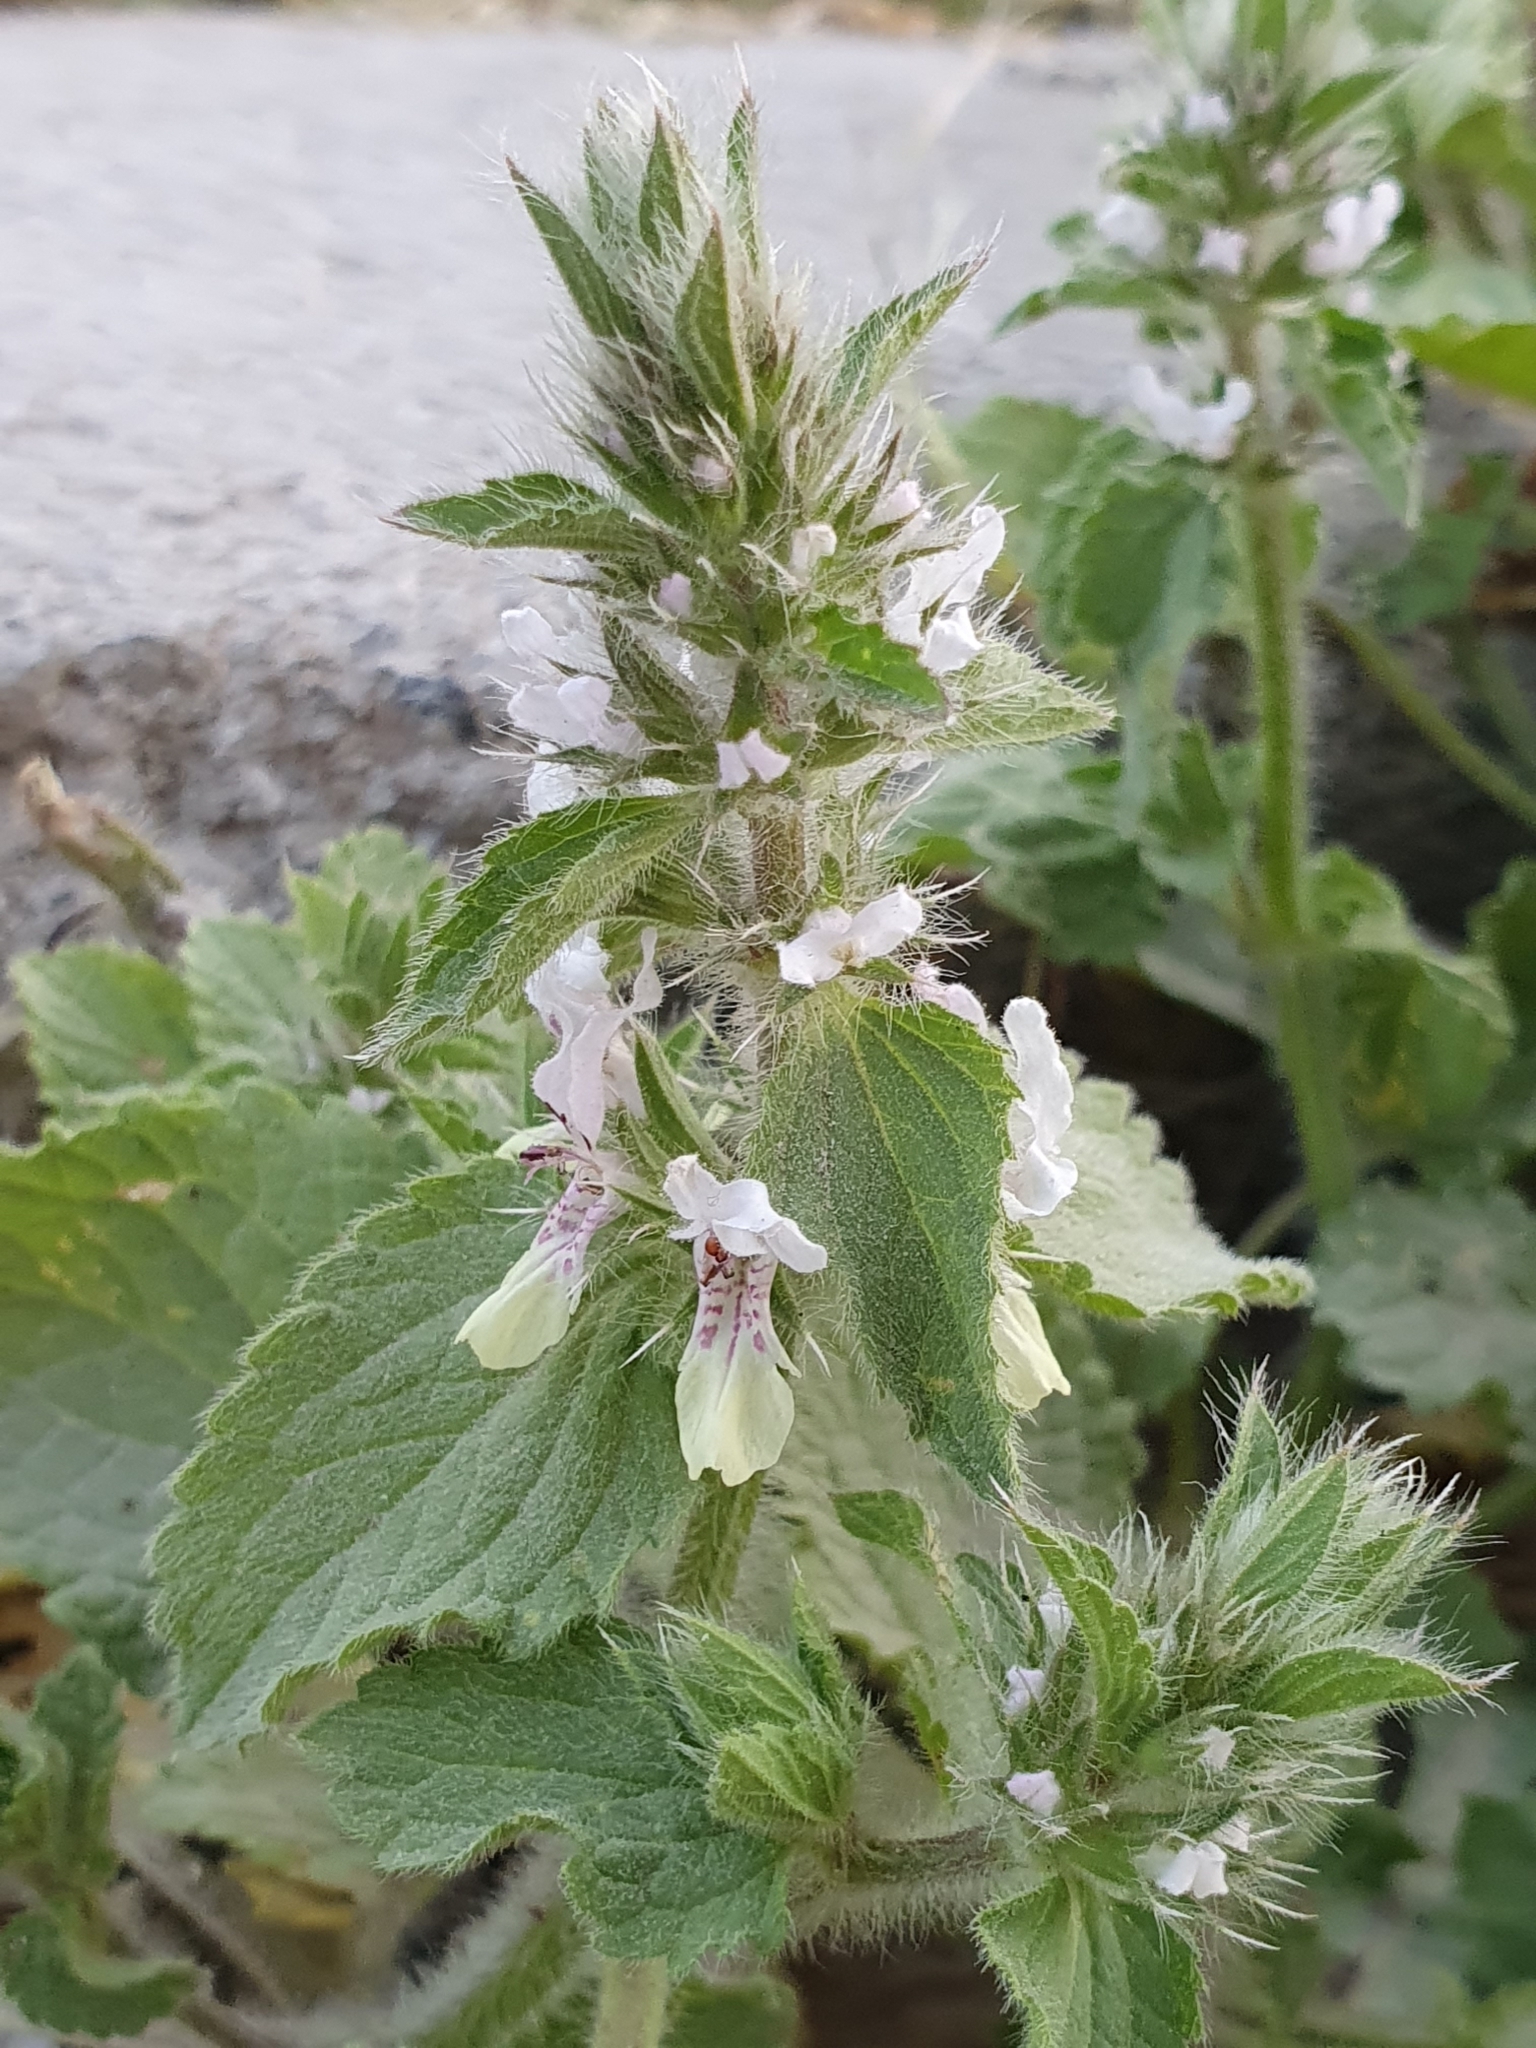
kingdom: Plantae
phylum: Tracheophyta
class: Magnoliopsida
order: Lamiales
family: Lamiaceae
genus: Stachys
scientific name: Stachys ocymastrum
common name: Italian hedgenettle
